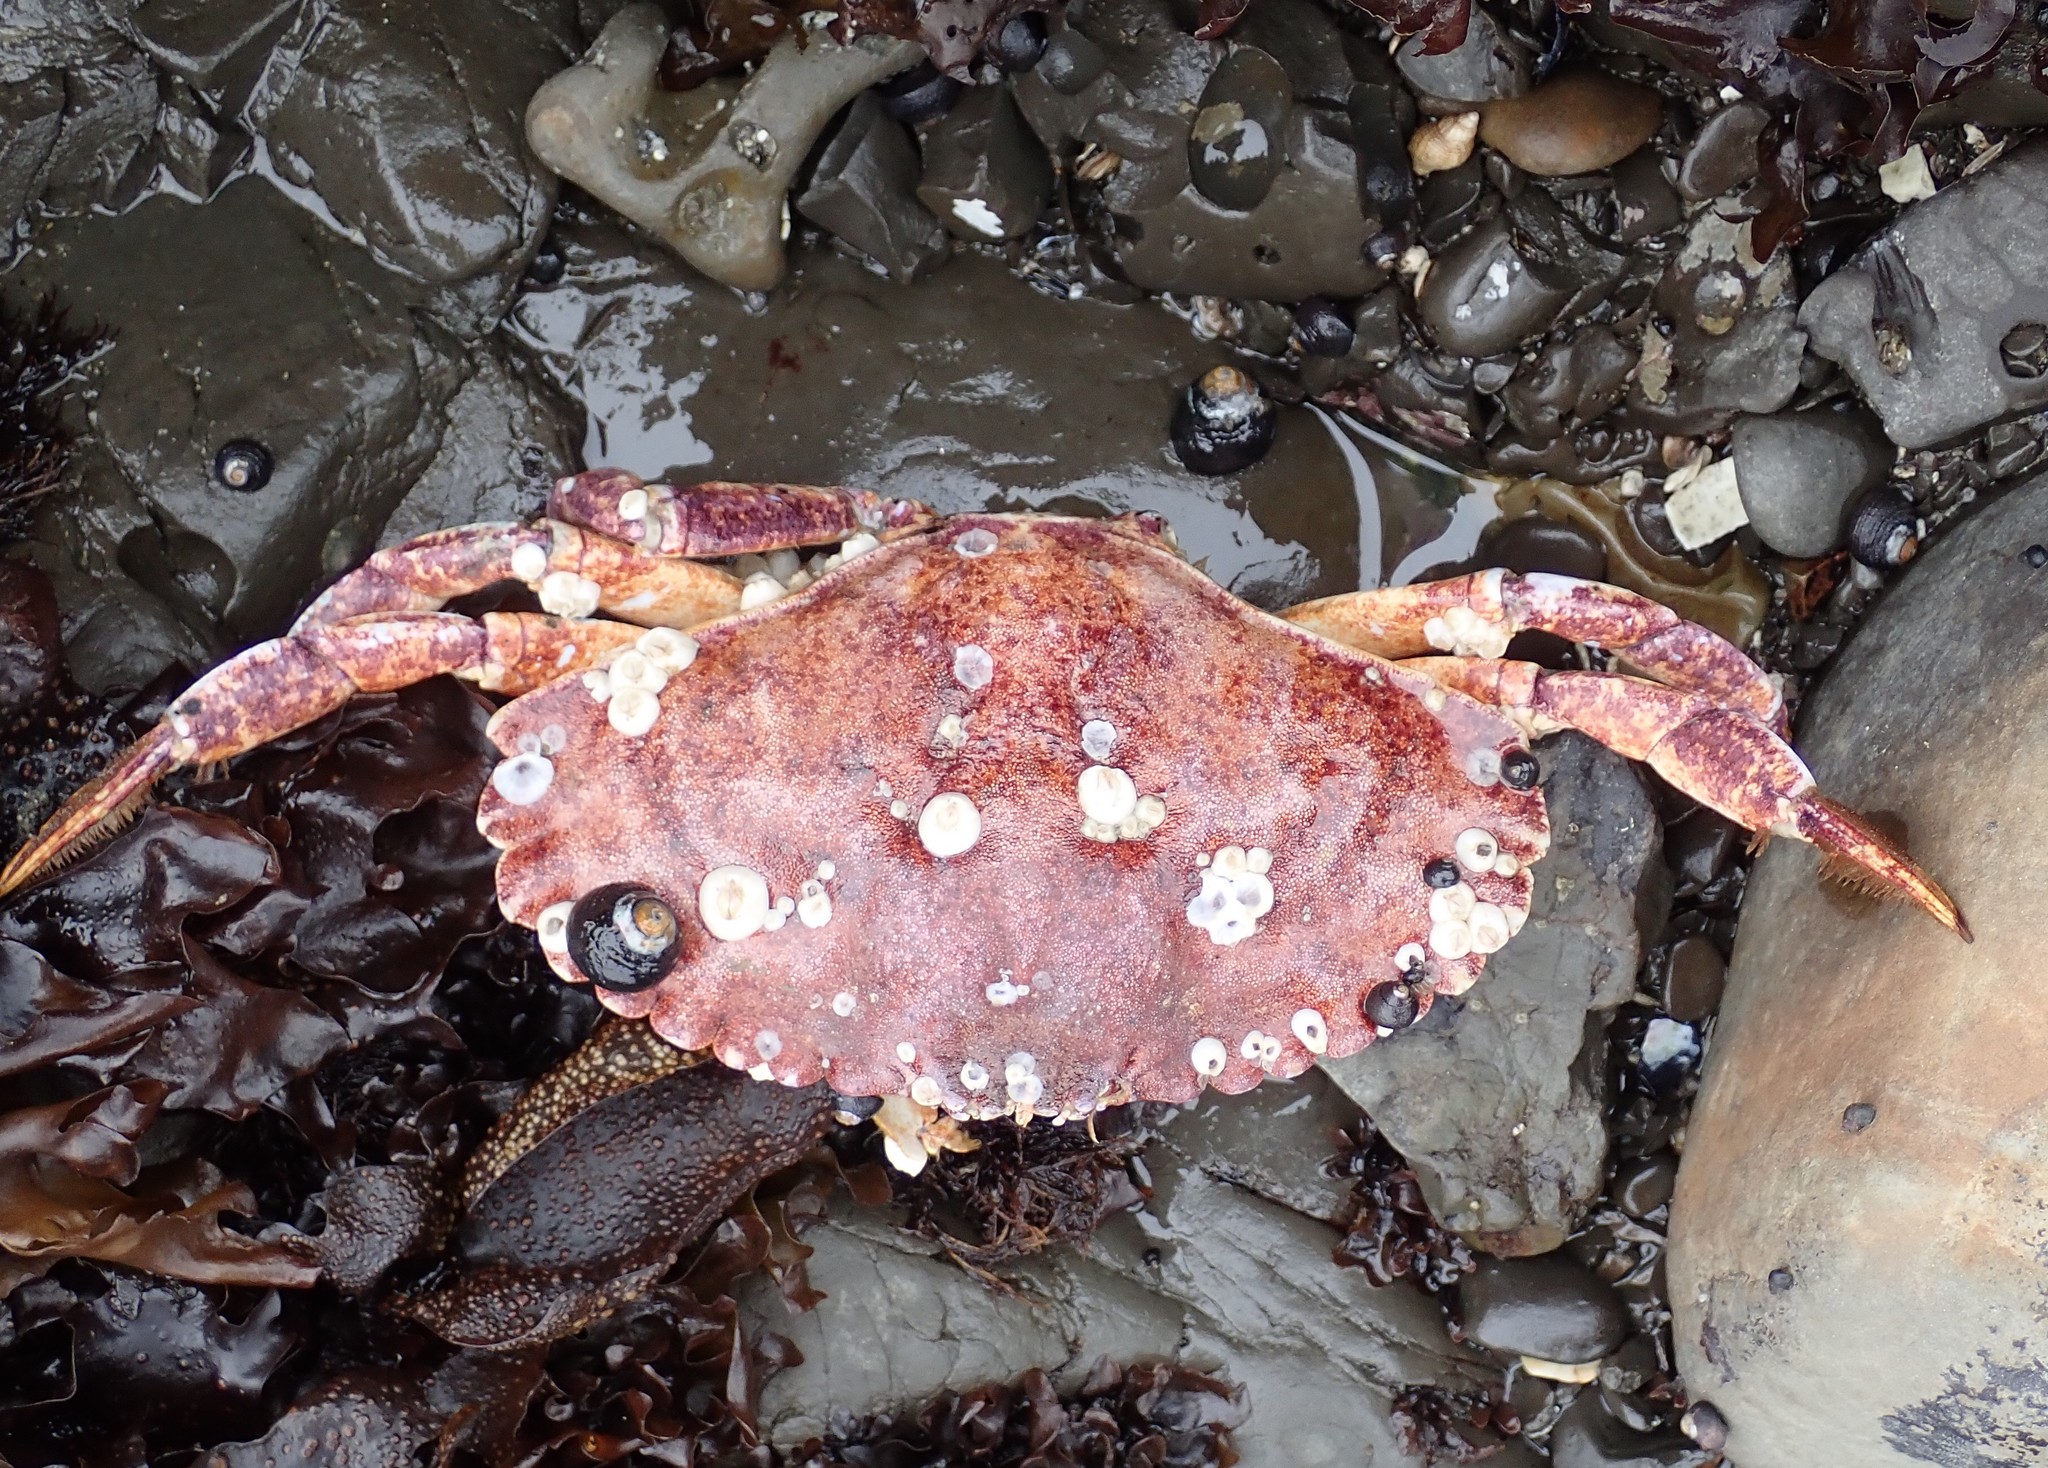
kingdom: Animalia
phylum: Arthropoda
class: Malacostraca
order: Decapoda
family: Cancridae
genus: Cancer
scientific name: Cancer productus
